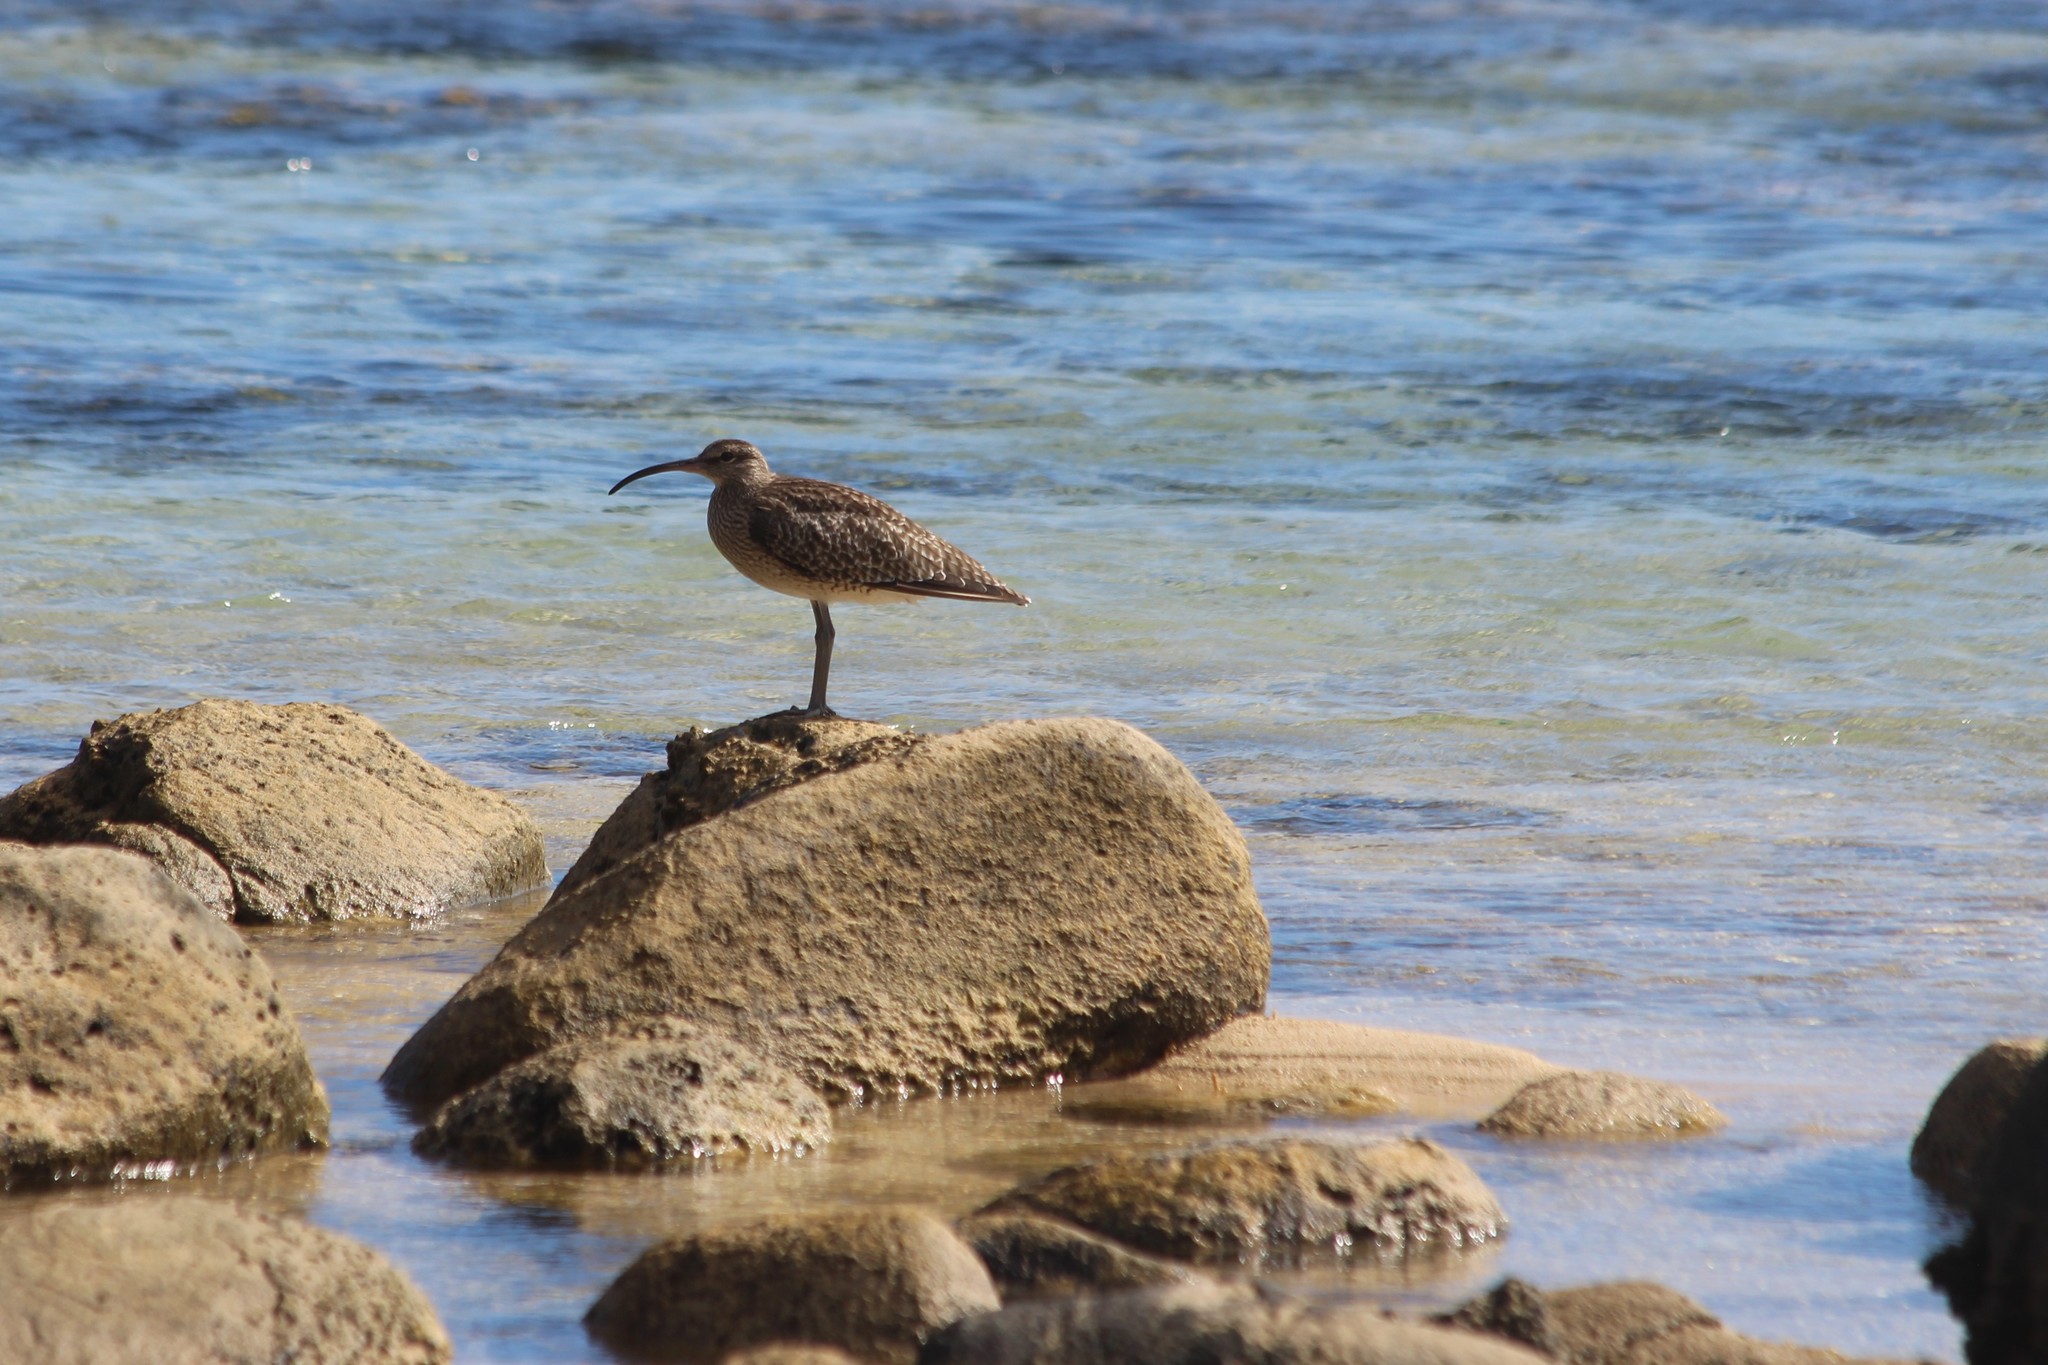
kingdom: Animalia
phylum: Chordata
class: Aves
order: Charadriiformes
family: Scolopacidae
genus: Numenius
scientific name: Numenius phaeopus
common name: Whimbrel
